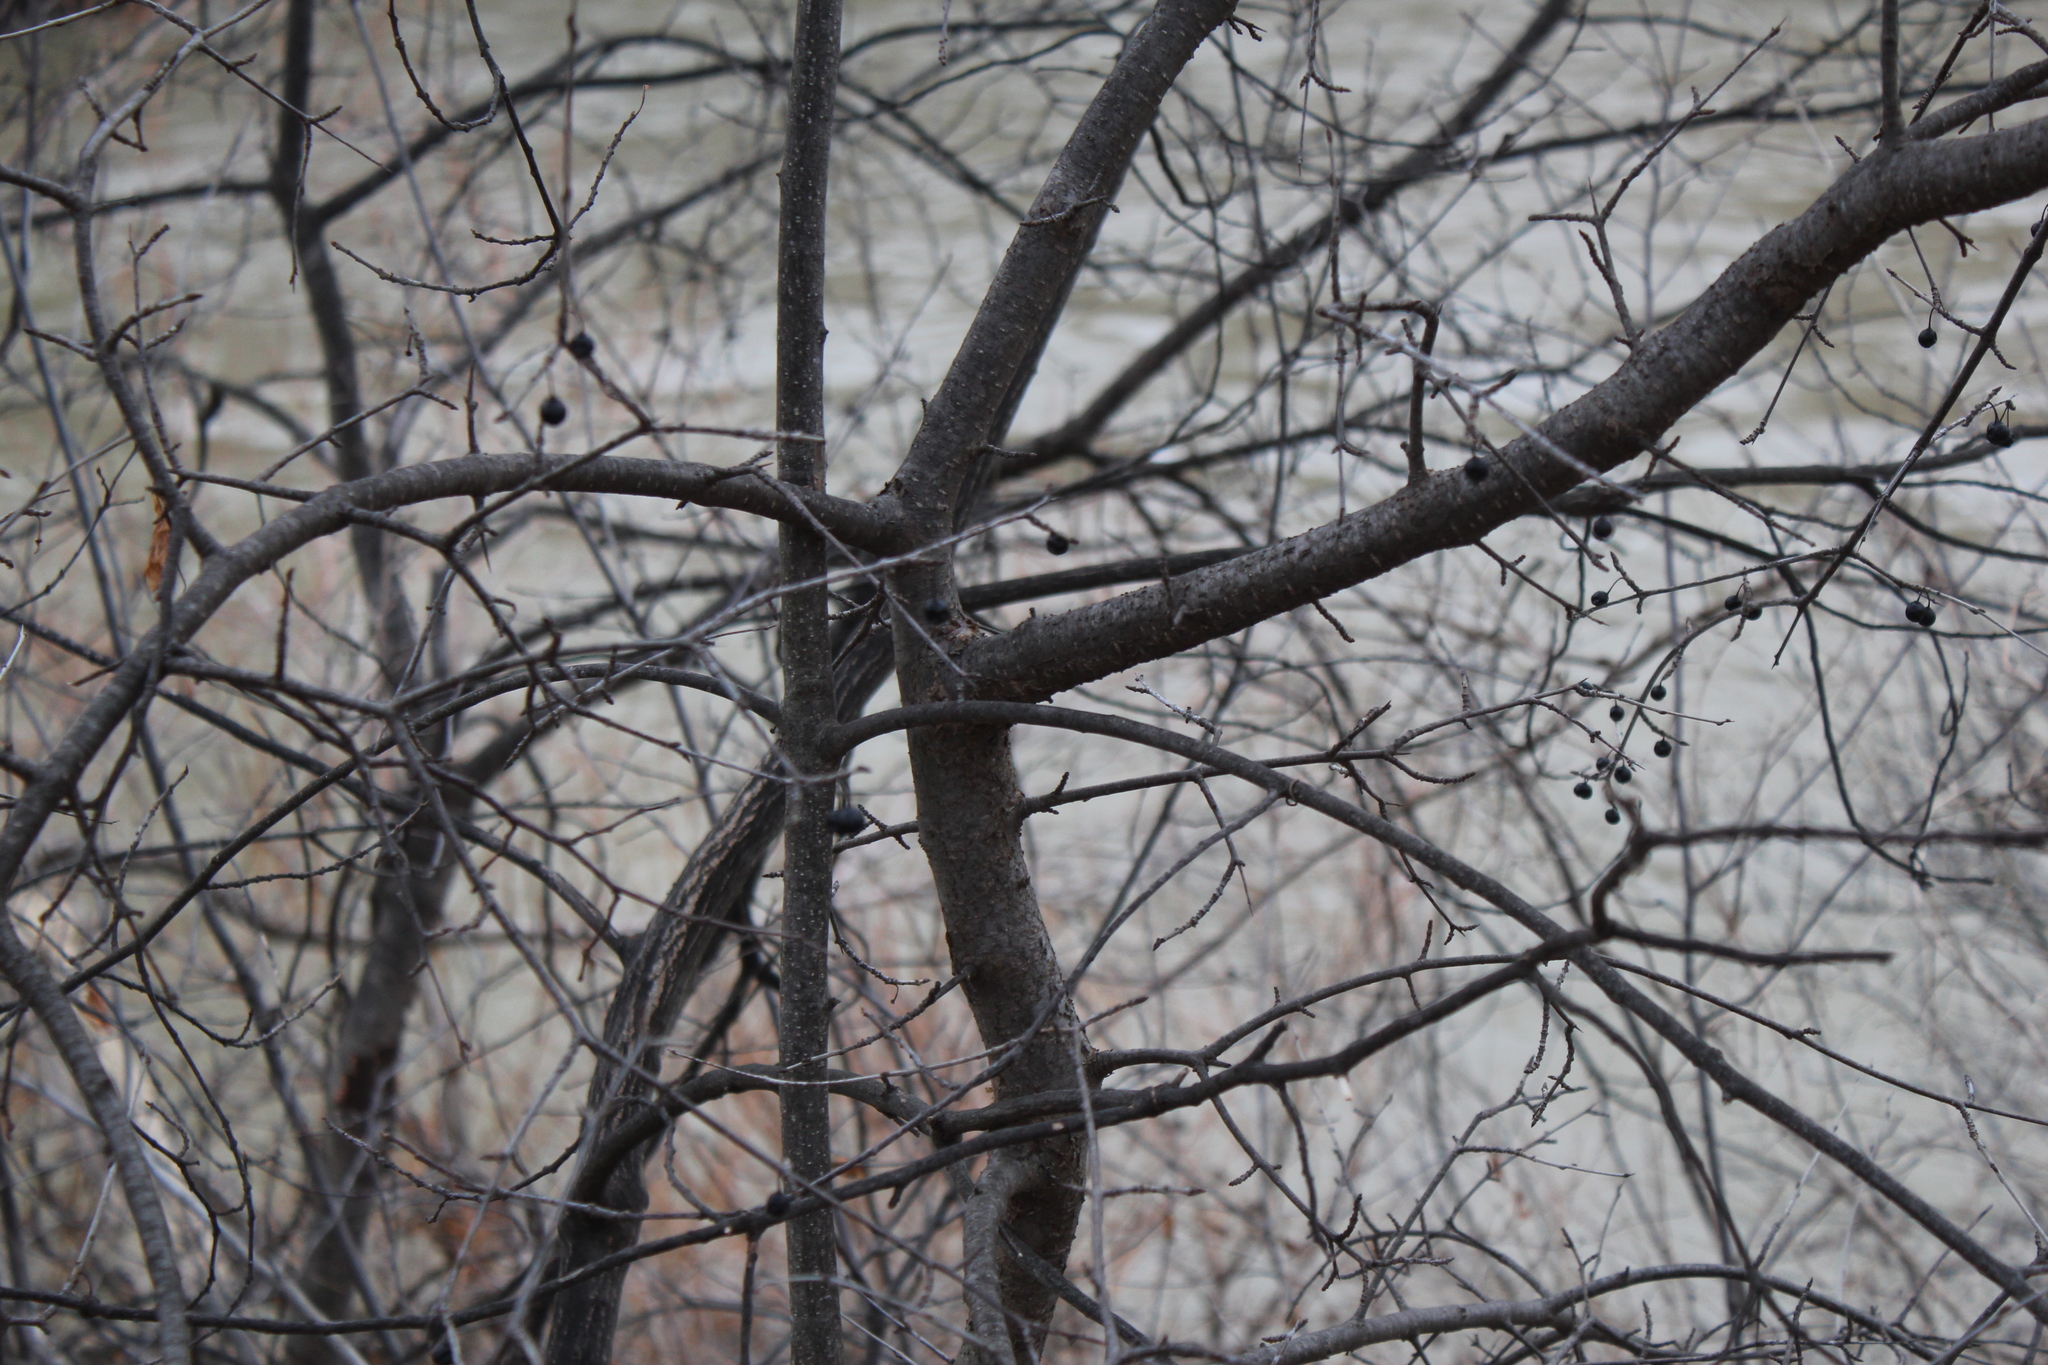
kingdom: Plantae
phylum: Tracheophyta
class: Magnoliopsida
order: Rosales
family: Rhamnaceae
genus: Rhamnus
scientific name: Rhamnus cathartica
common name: Common buckthorn
